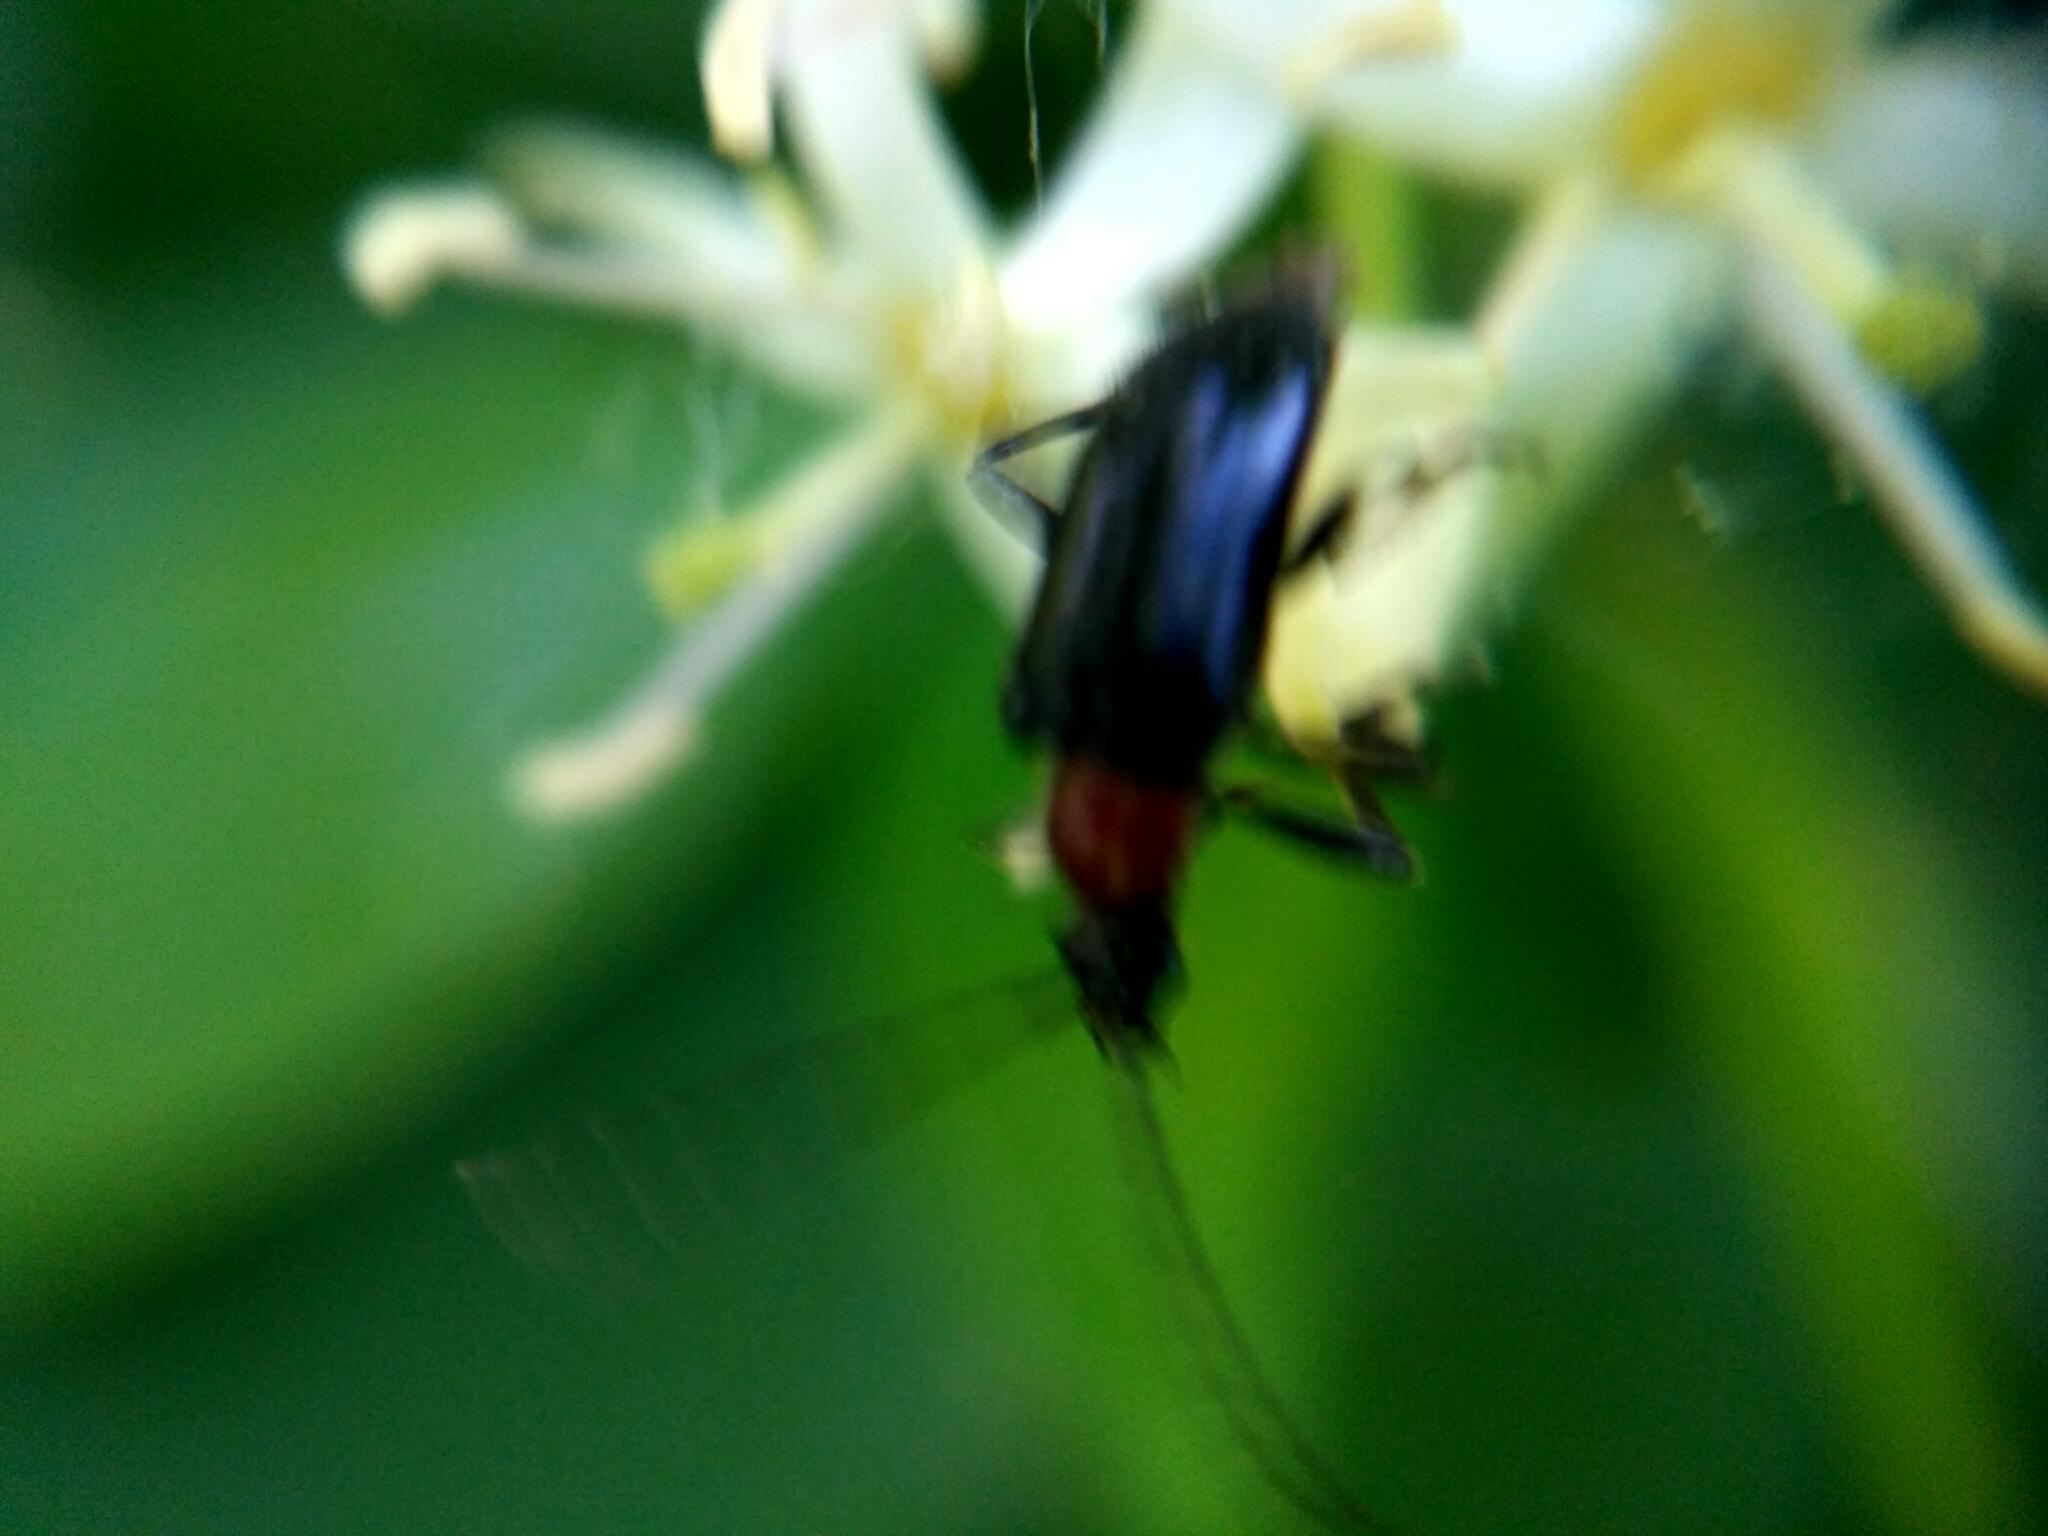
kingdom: Animalia
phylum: Arthropoda
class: Insecta
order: Coleoptera
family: Cerambycidae
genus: Dinoptera
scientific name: Dinoptera collaris
